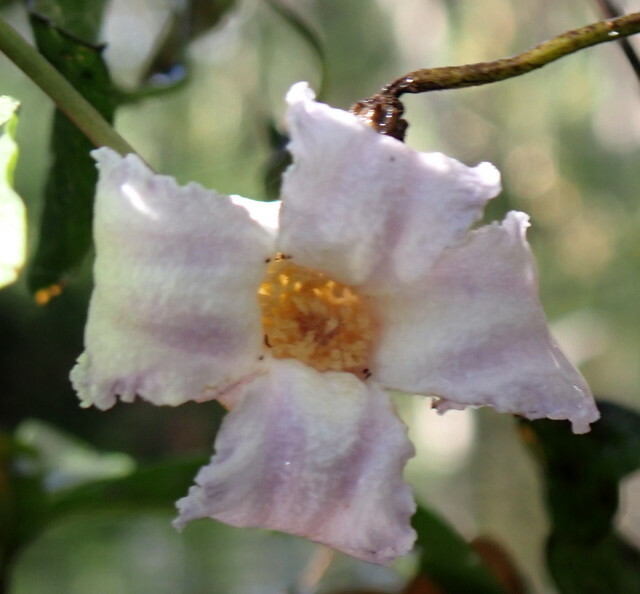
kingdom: Plantae
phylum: Tracheophyta
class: Magnoliopsida
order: Ranunculales
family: Ranunculaceae
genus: Clematis
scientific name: Clematis crispa
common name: Curly clematis
